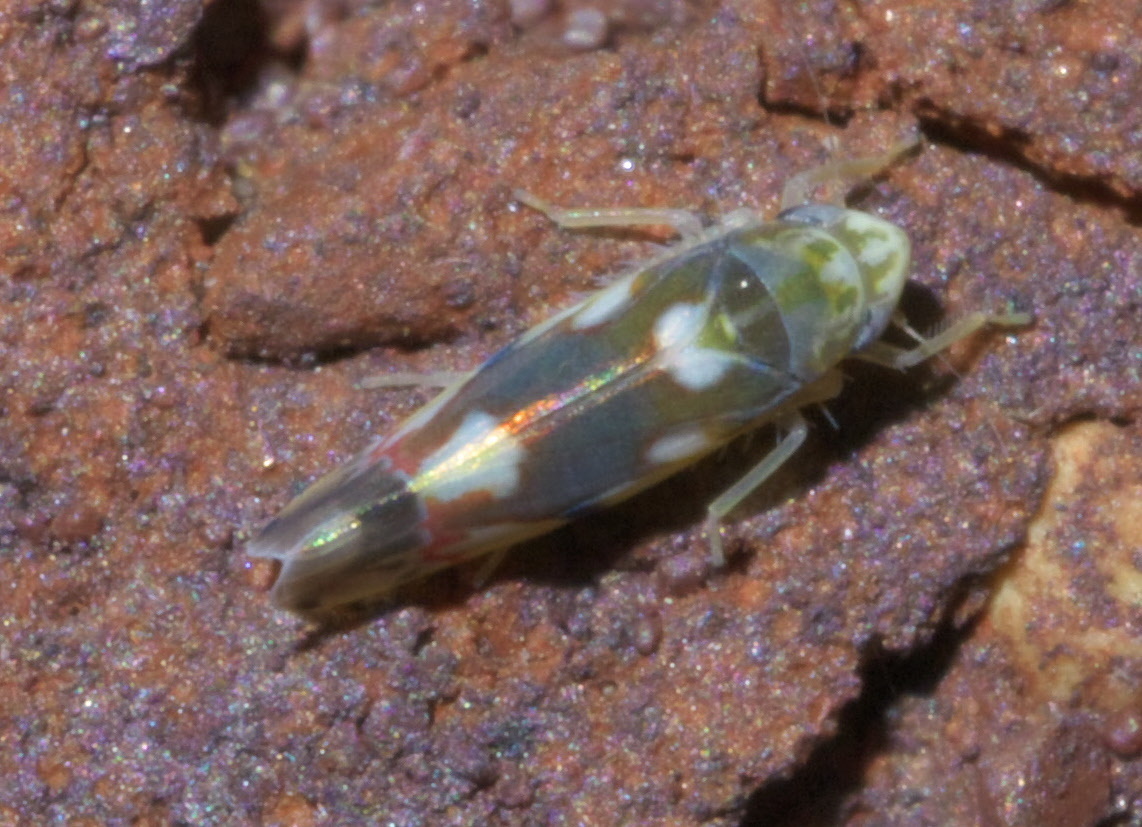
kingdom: Animalia
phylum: Arthropoda
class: Insecta
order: Hemiptera
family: Cicadellidae
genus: Erythroneura
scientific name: Erythroneura elegans
